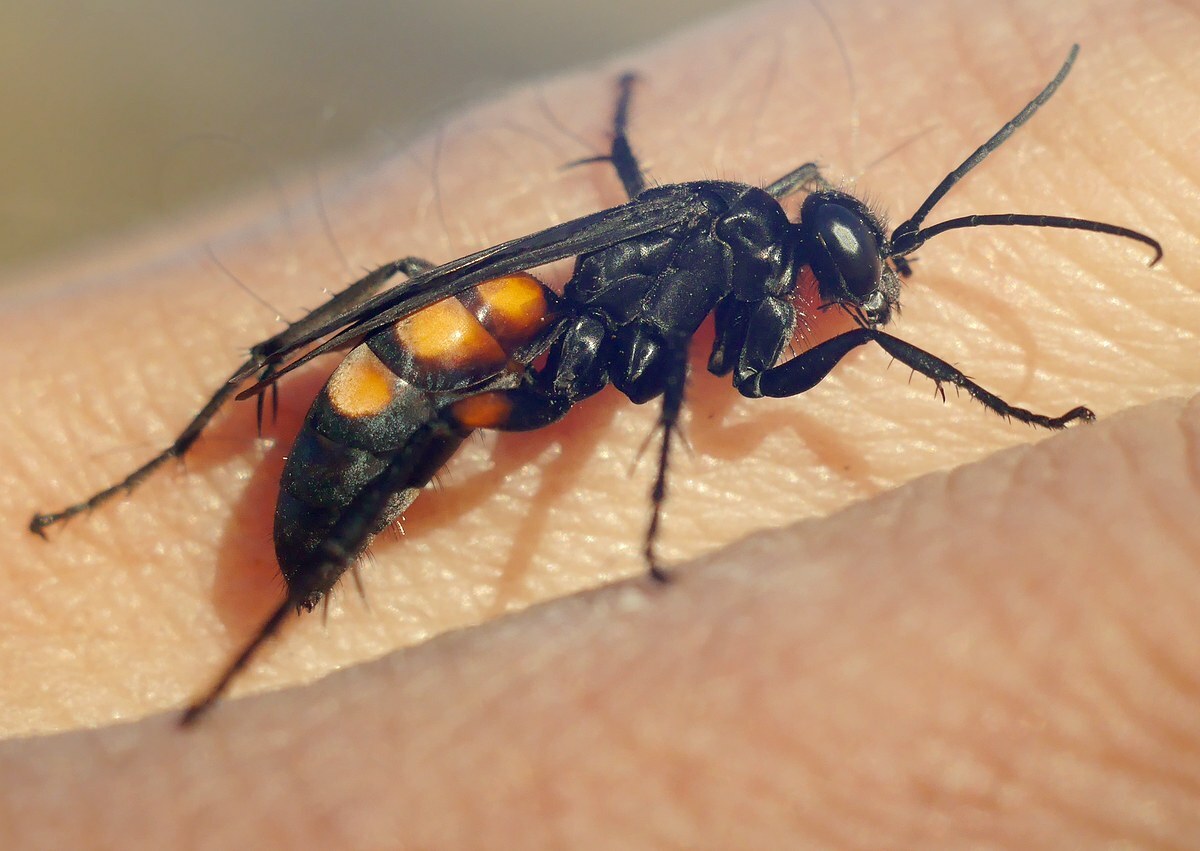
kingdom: Animalia
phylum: Arthropoda
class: Insecta
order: Hymenoptera
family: Pompilidae
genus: Anoplius
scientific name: Anoplius viaticus
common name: Black banded spider wasp
